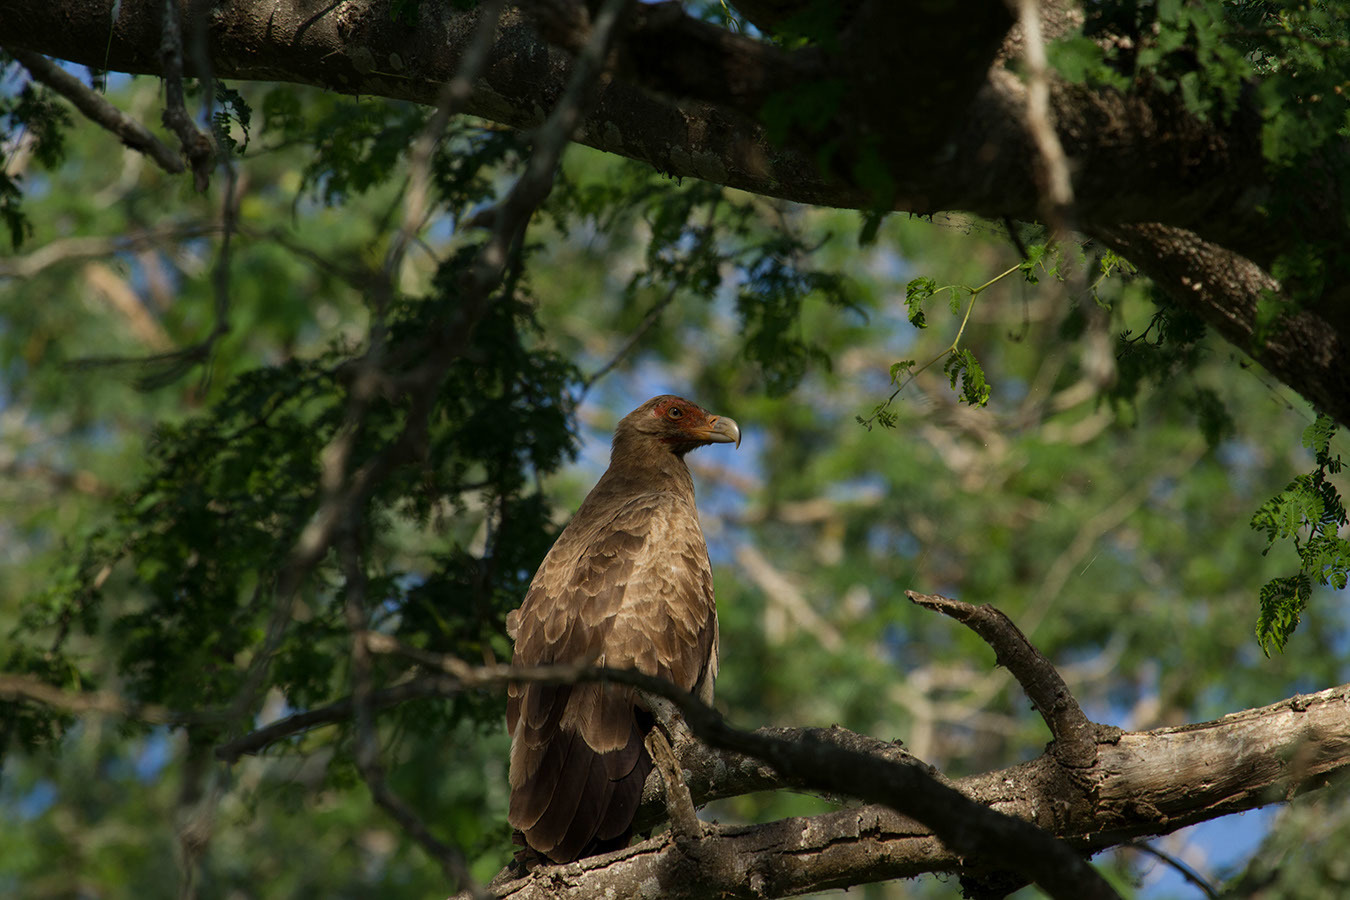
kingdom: Animalia
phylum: Chordata
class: Aves
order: Accipitriformes
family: Accipitridae
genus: Gypohierax
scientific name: Gypohierax angolensis
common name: Palm-nut vulture
